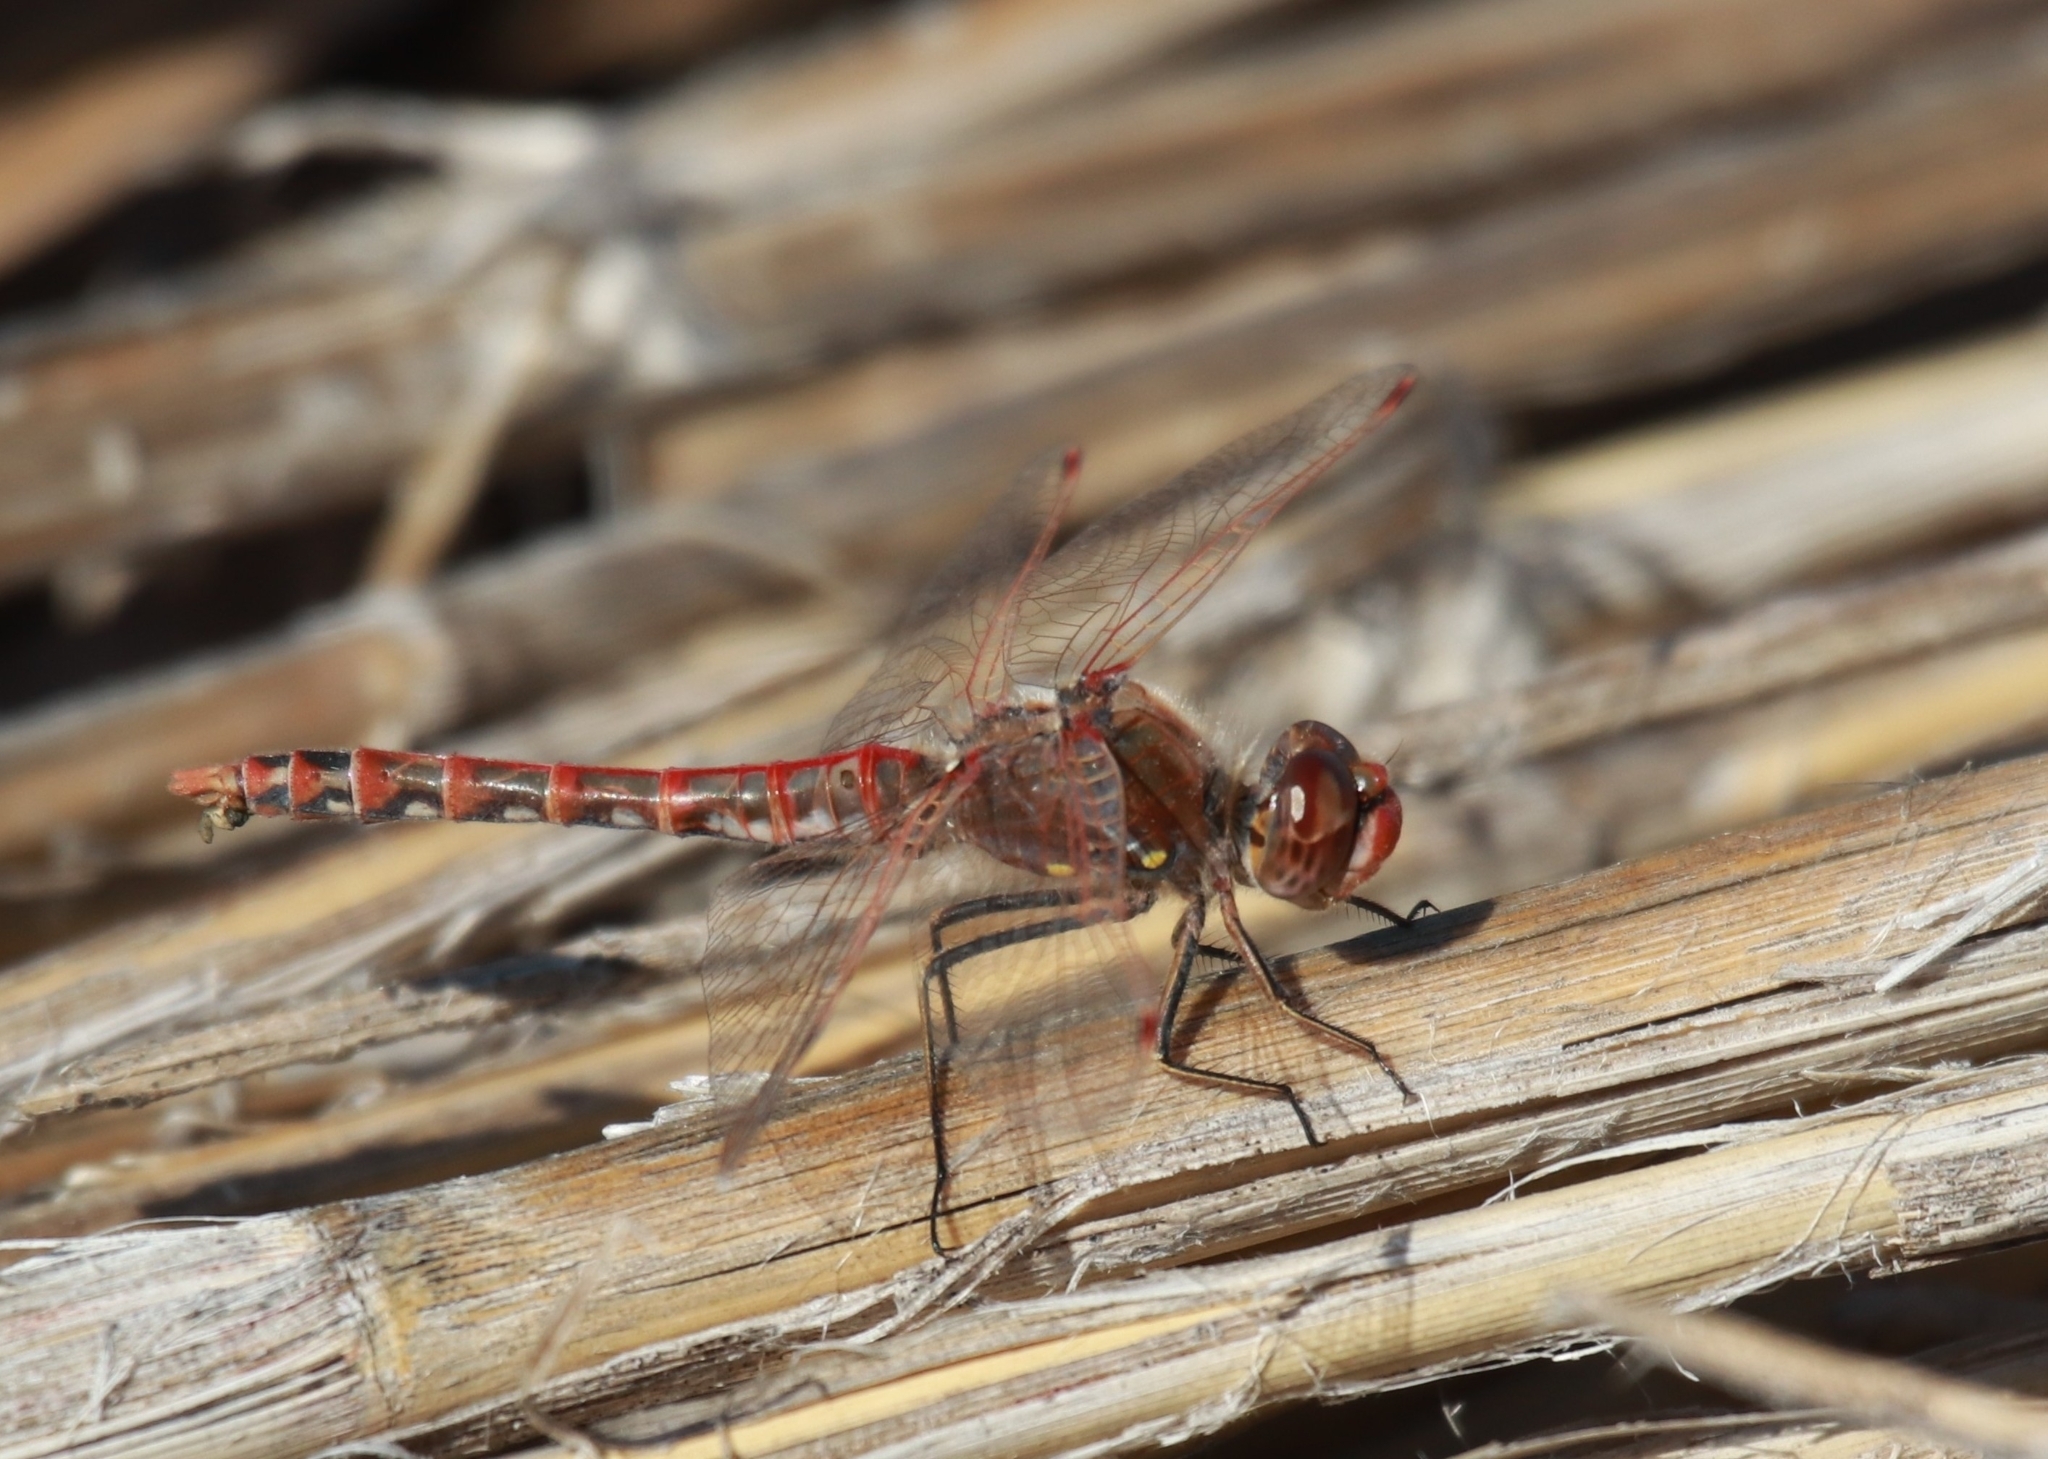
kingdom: Animalia
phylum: Arthropoda
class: Insecta
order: Odonata
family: Libellulidae
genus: Sympetrum
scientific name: Sympetrum corruptum
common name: Variegated meadowhawk
